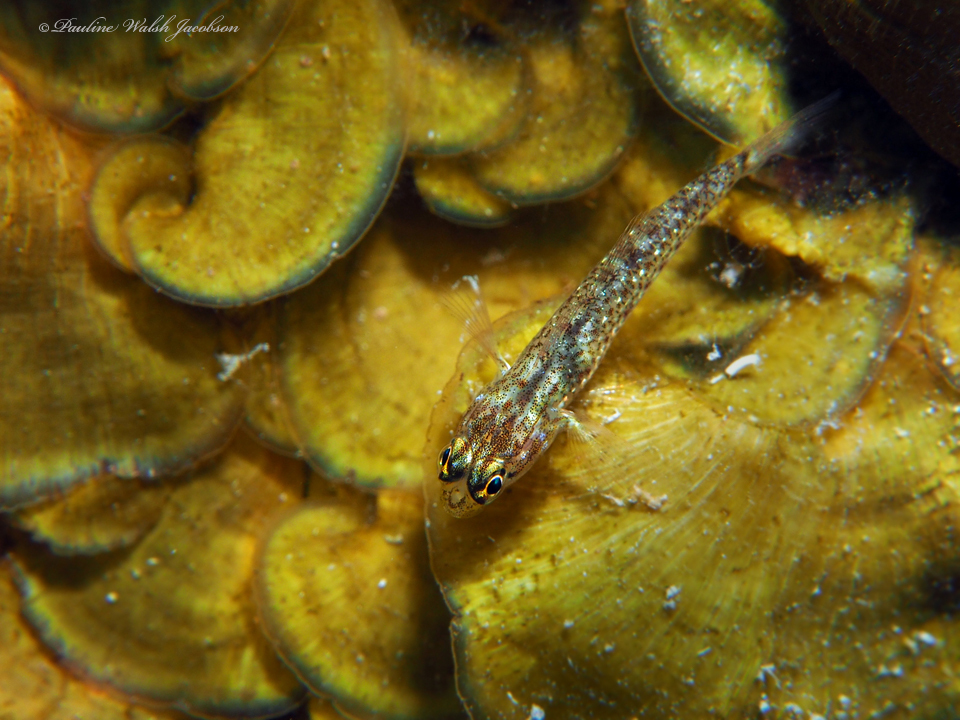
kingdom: Animalia
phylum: Chordata
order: Perciformes
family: Gobiidae
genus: Coryphopterus
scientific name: Coryphopterus dicrus
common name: Colon goby
